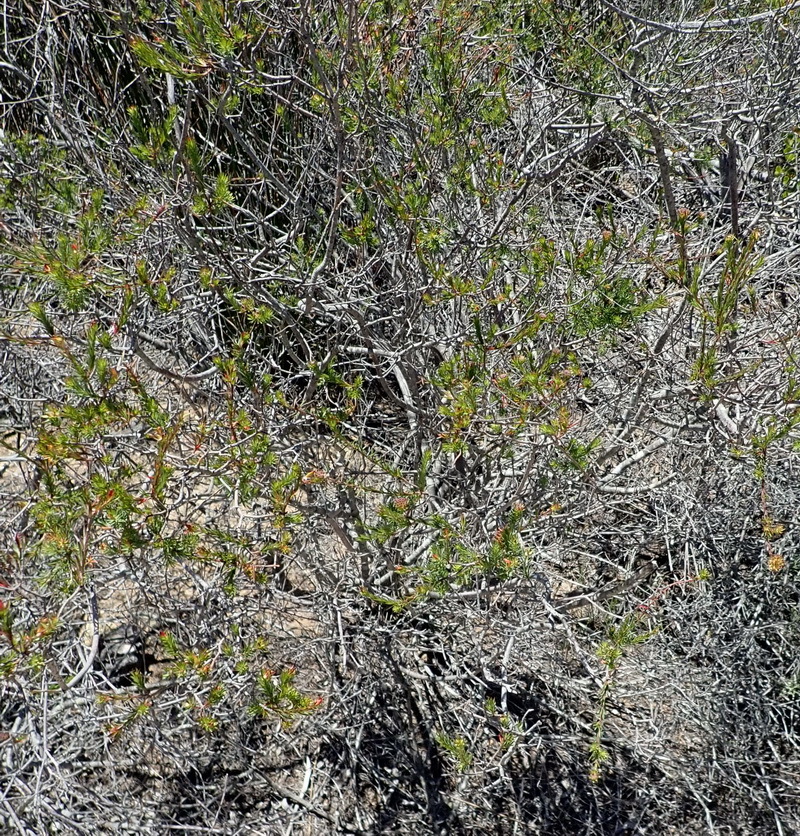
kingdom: Plantae
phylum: Tracheophyta
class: Magnoliopsida
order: Malvales
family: Thymelaeaceae
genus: Gnidia
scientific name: Gnidia squarrosa
